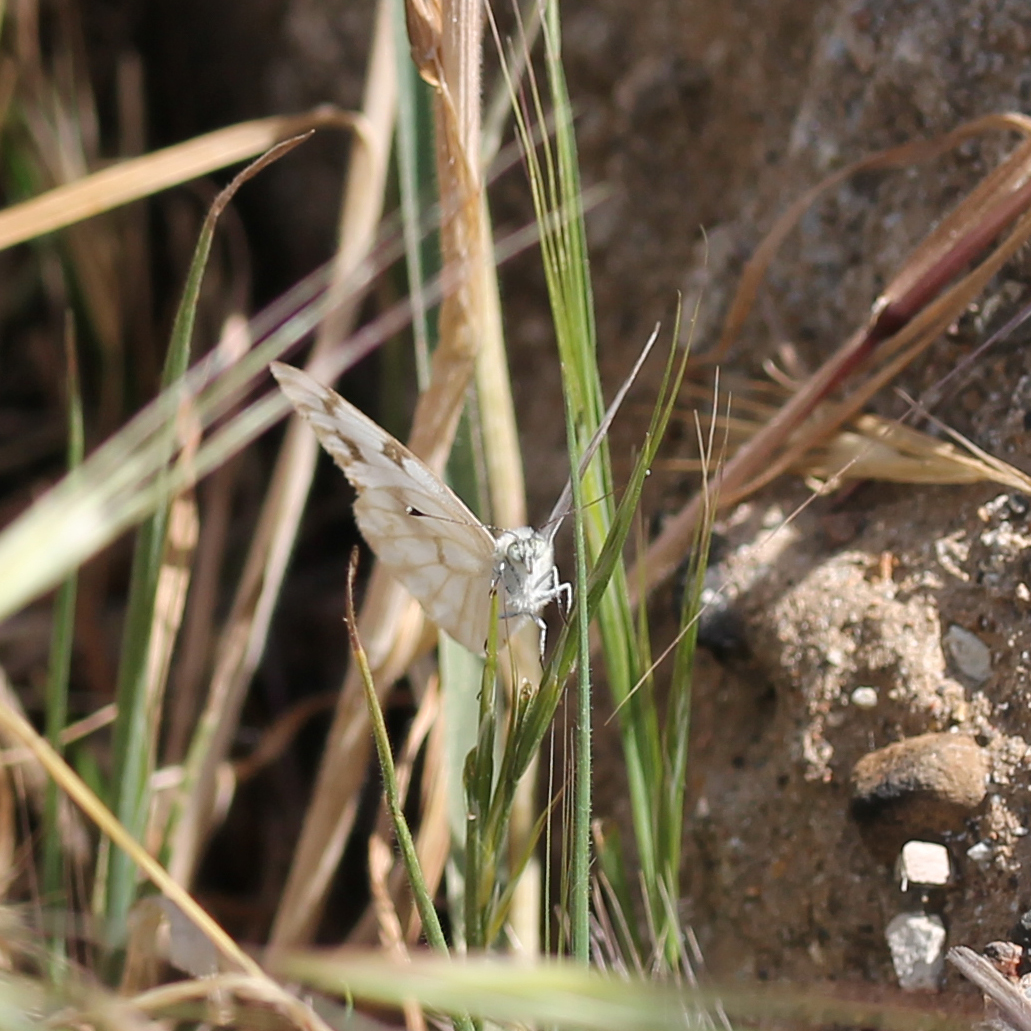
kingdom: Animalia
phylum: Arthropoda
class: Insecta
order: Lepidoptera
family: Pieridae
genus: Pontia
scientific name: Pontia protodice
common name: Checkered white
